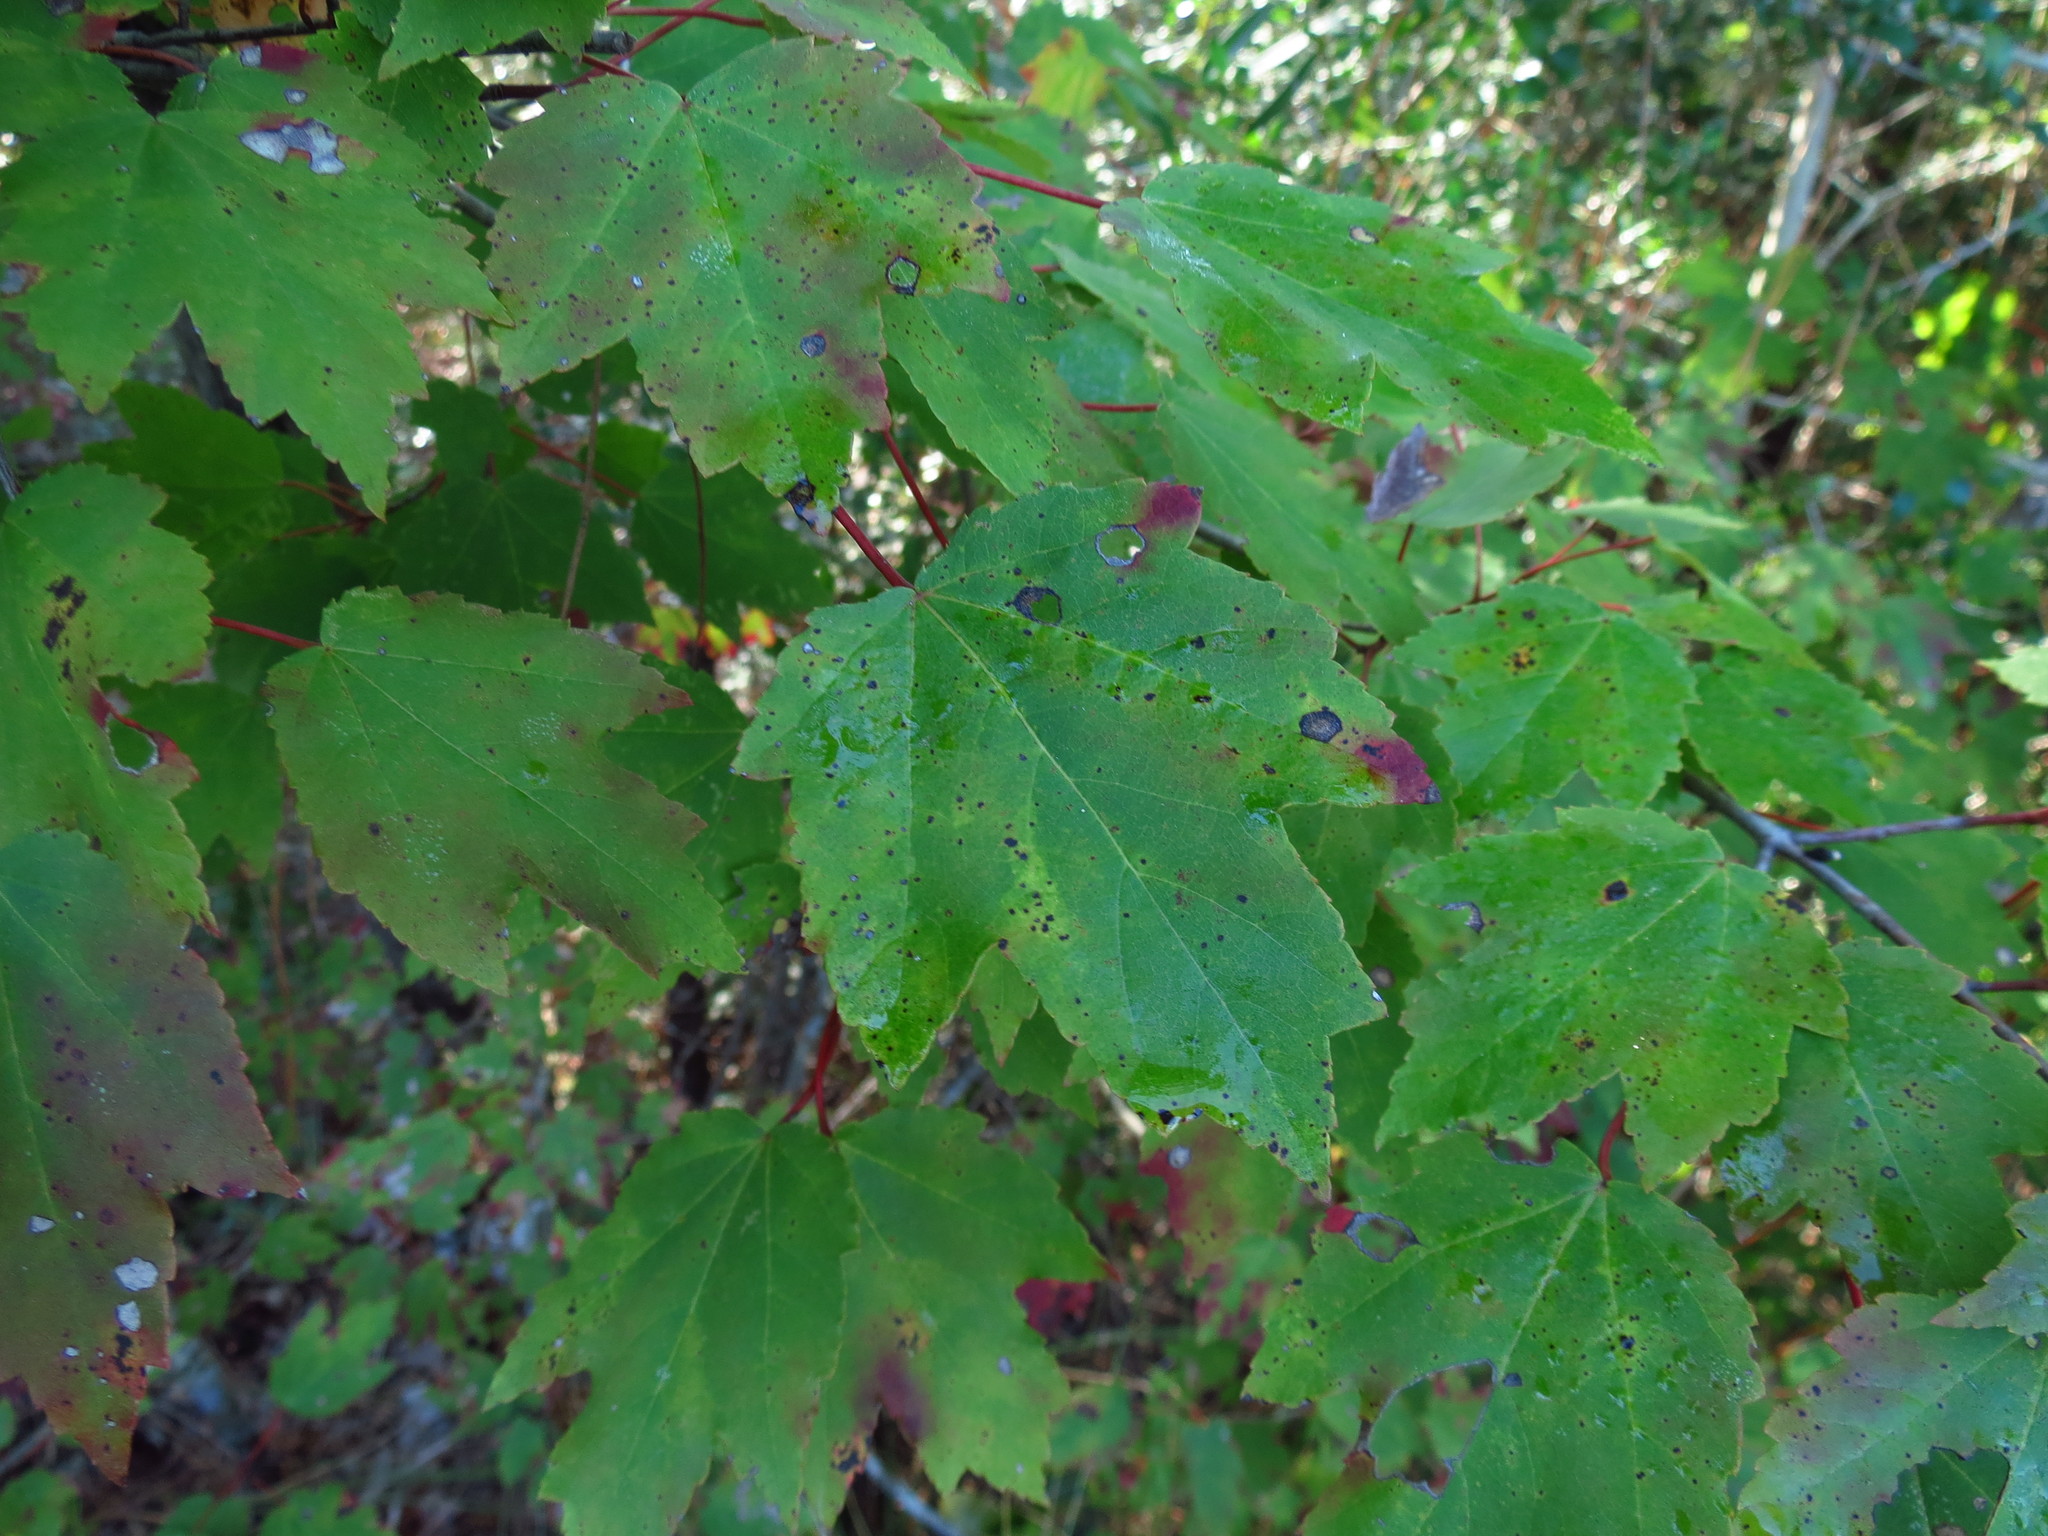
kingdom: Plantae
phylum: Tracheophyta
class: Magnoliopsida
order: Sapindales
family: Sapindaceae
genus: Acer
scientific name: Acer rubrum
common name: Red maple
